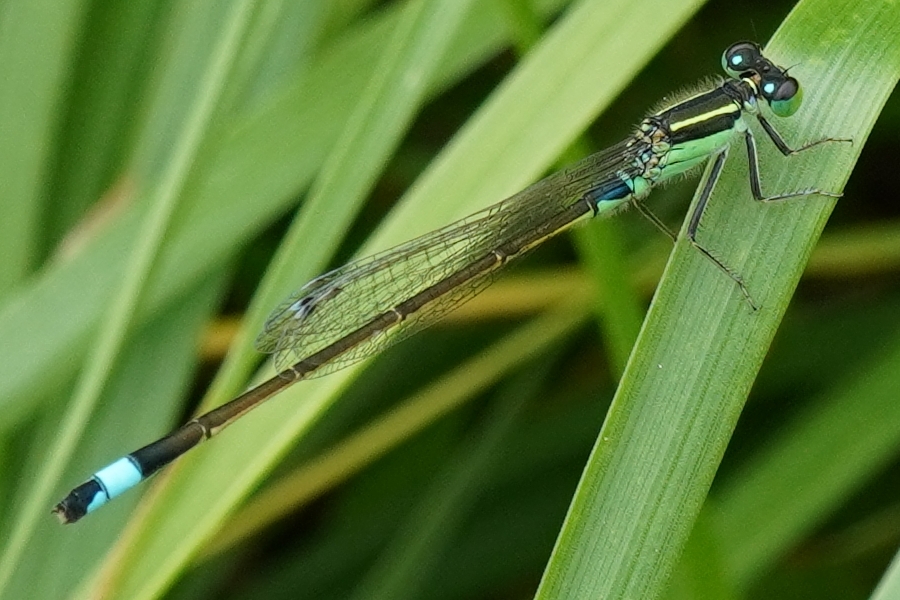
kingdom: Animalia
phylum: Arthropoda
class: Insecta
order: Odonata
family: Coenagrionidae
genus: Ischnura
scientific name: Ischnura senegalensis
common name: Tropical bluetail
